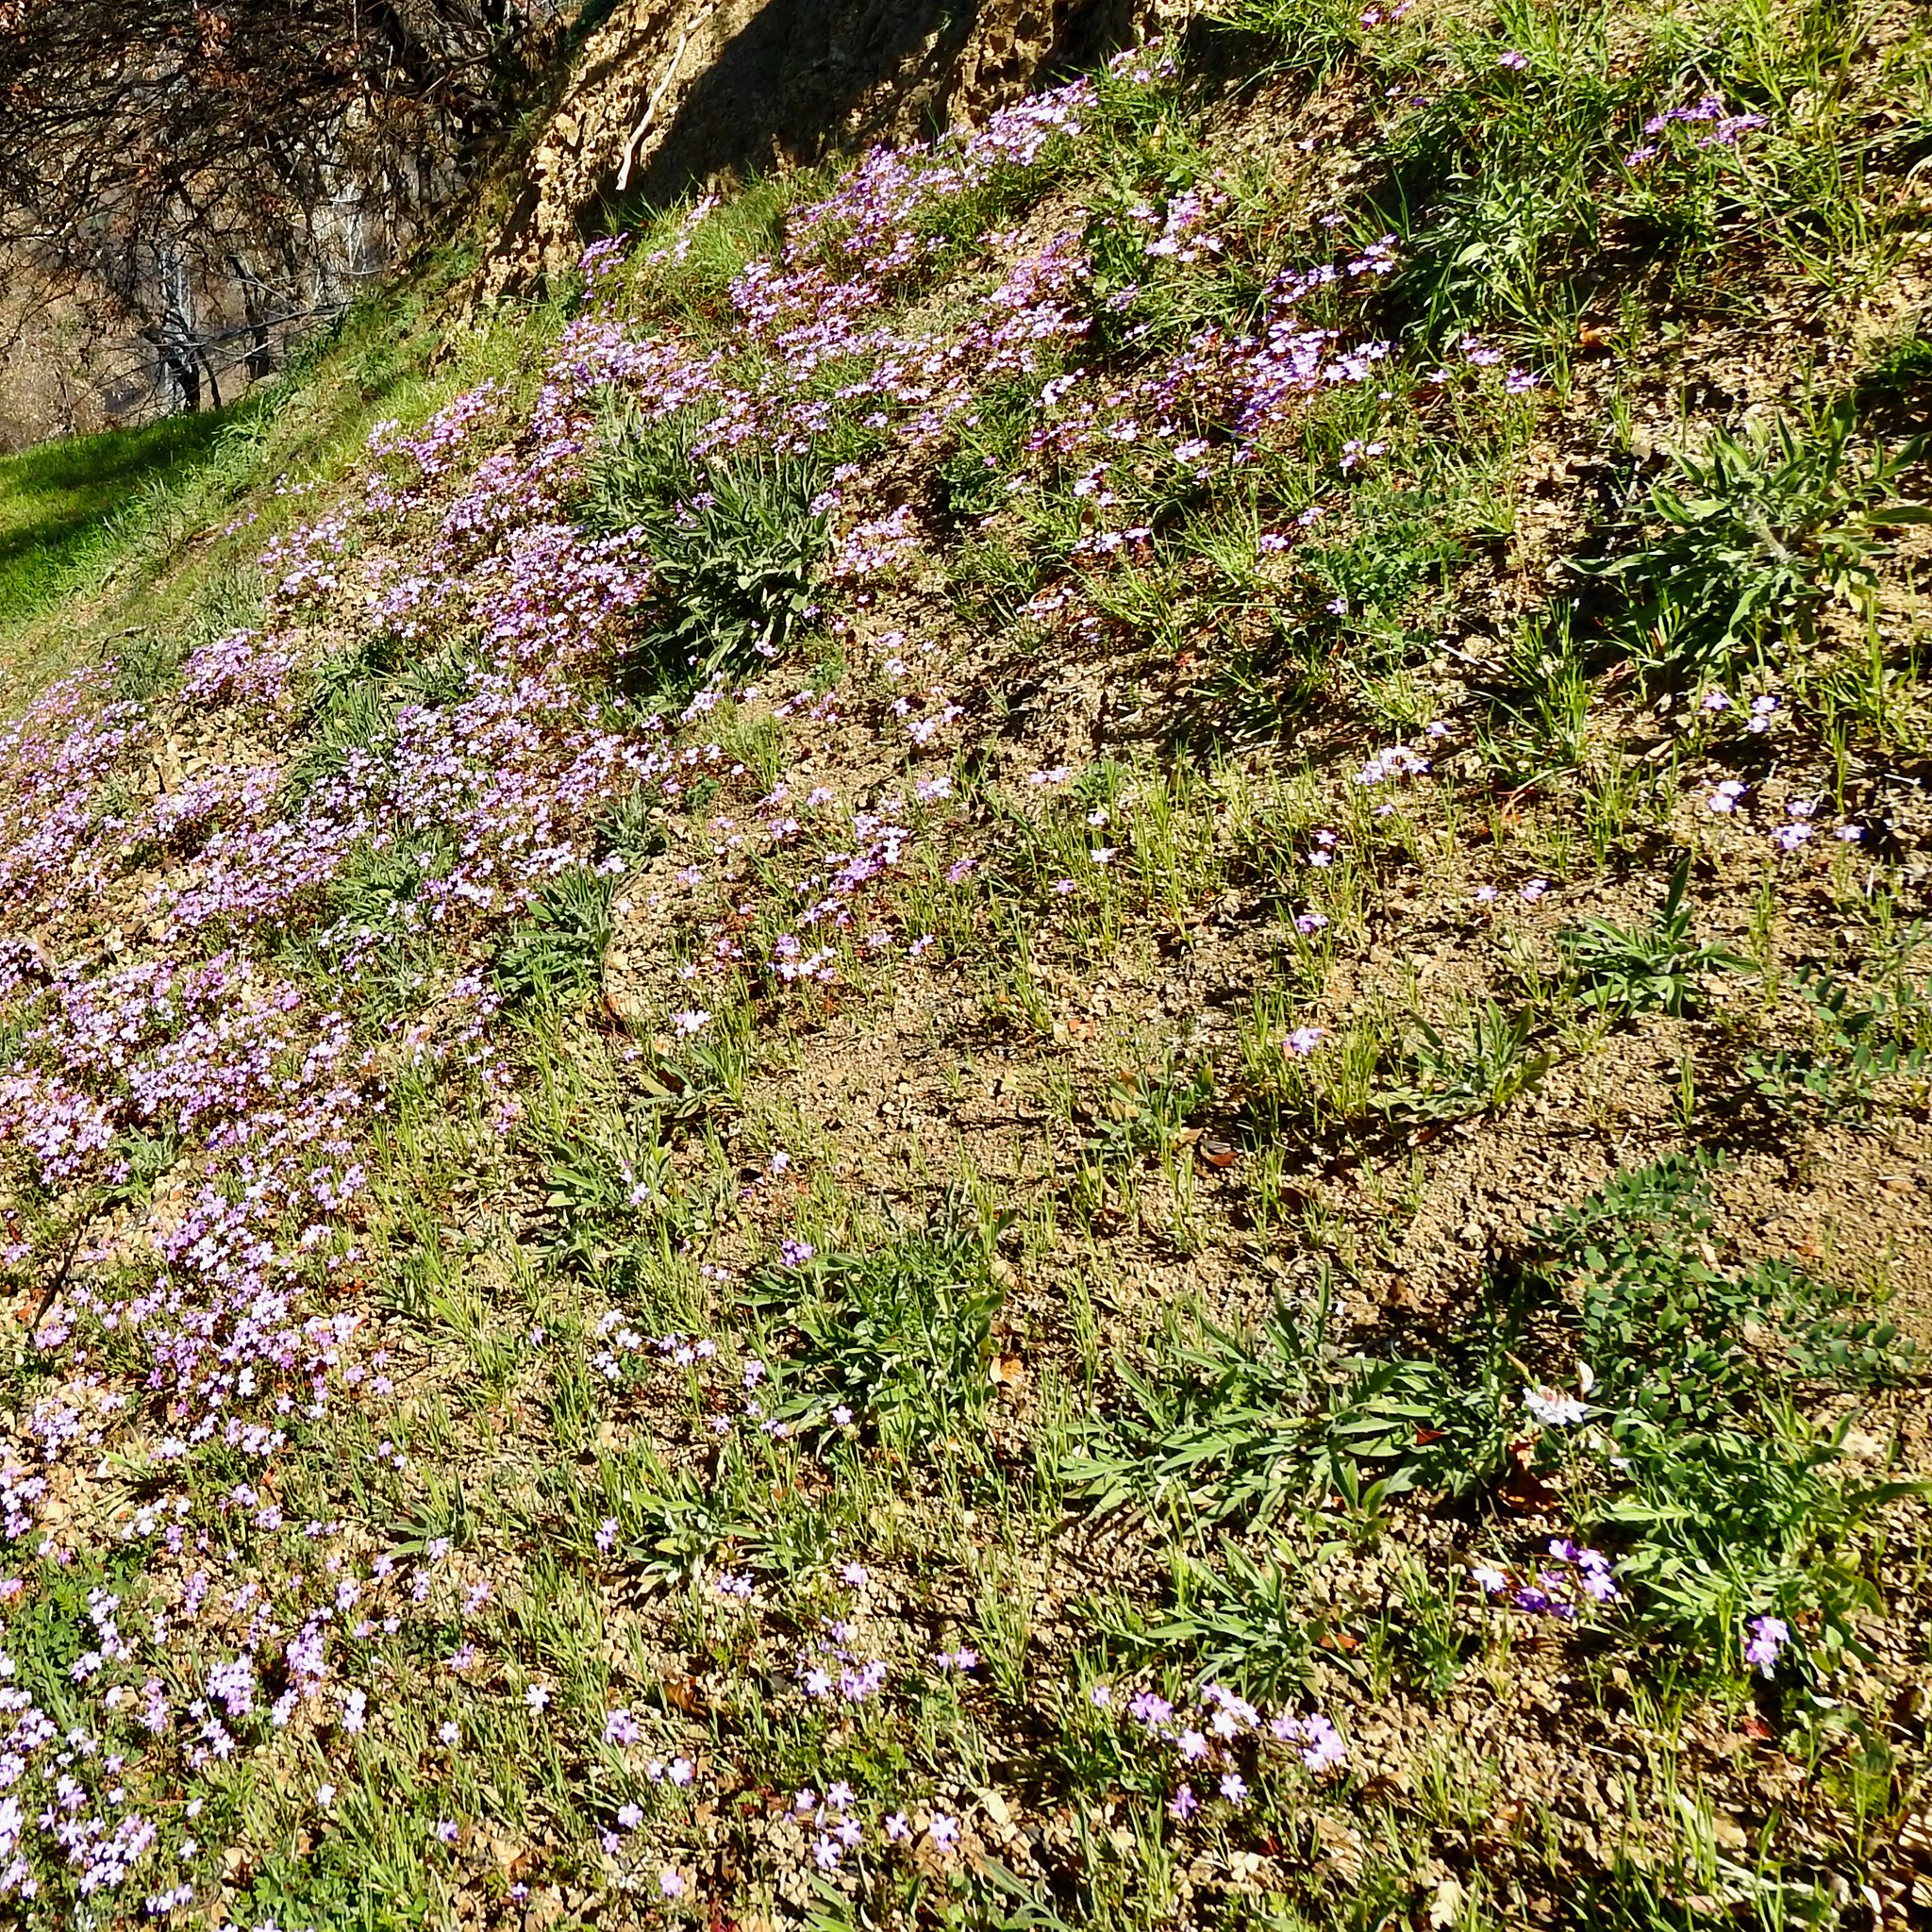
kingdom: Plantae
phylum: Tracheophyta
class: Magnoliopsida
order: Ericales
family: Polemoniaceae
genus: Leptosiphon
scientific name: Leptosiphon bicolor
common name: True babystars
